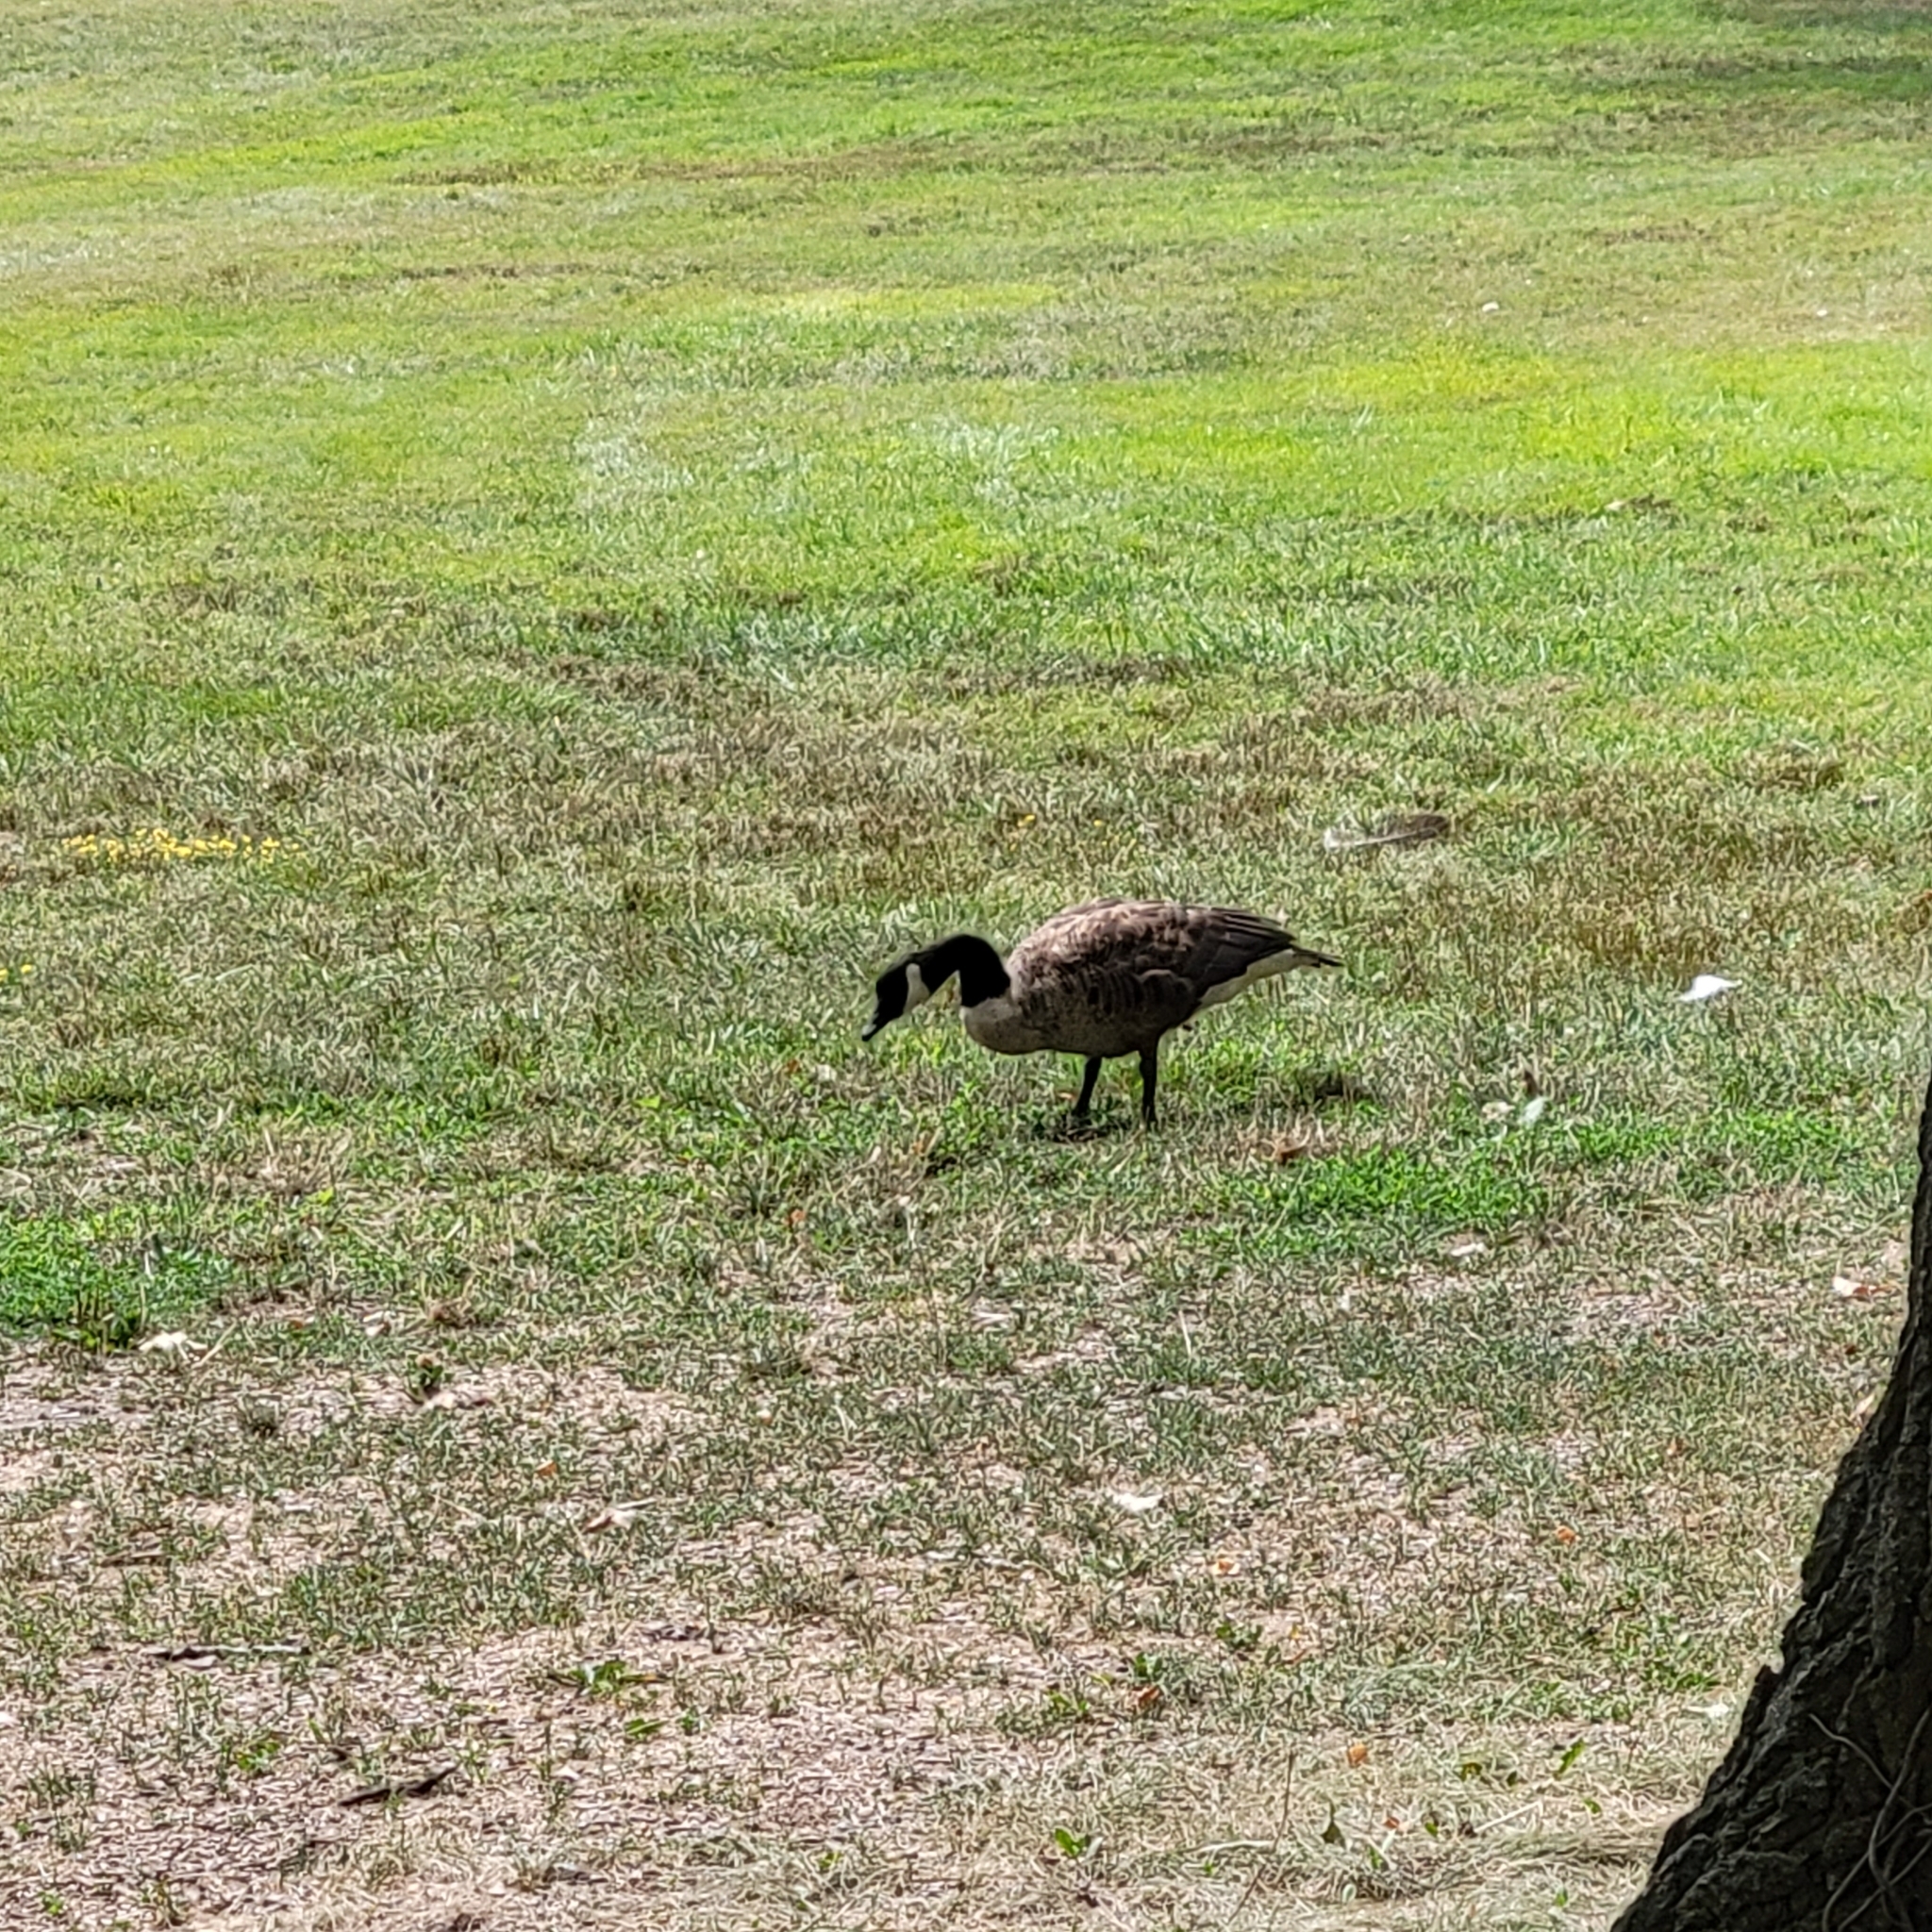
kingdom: Animalia
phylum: Chordata
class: Aves
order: Anseriformes
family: Anatidae
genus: Branta
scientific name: Branta canadensis
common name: Canada goose
